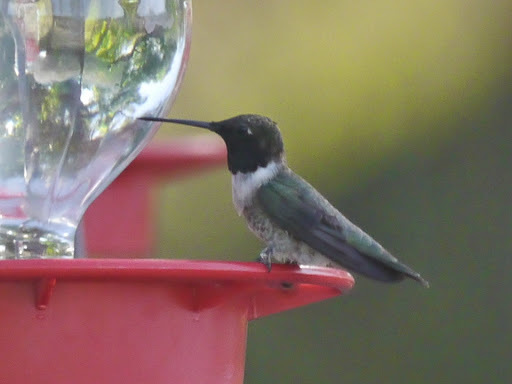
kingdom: Animalia
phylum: Chordata
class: Aves
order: Apodiformes
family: Trochilidae
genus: Archilochus
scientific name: Archilochus alexandri
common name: Black-chinned hummingbird
